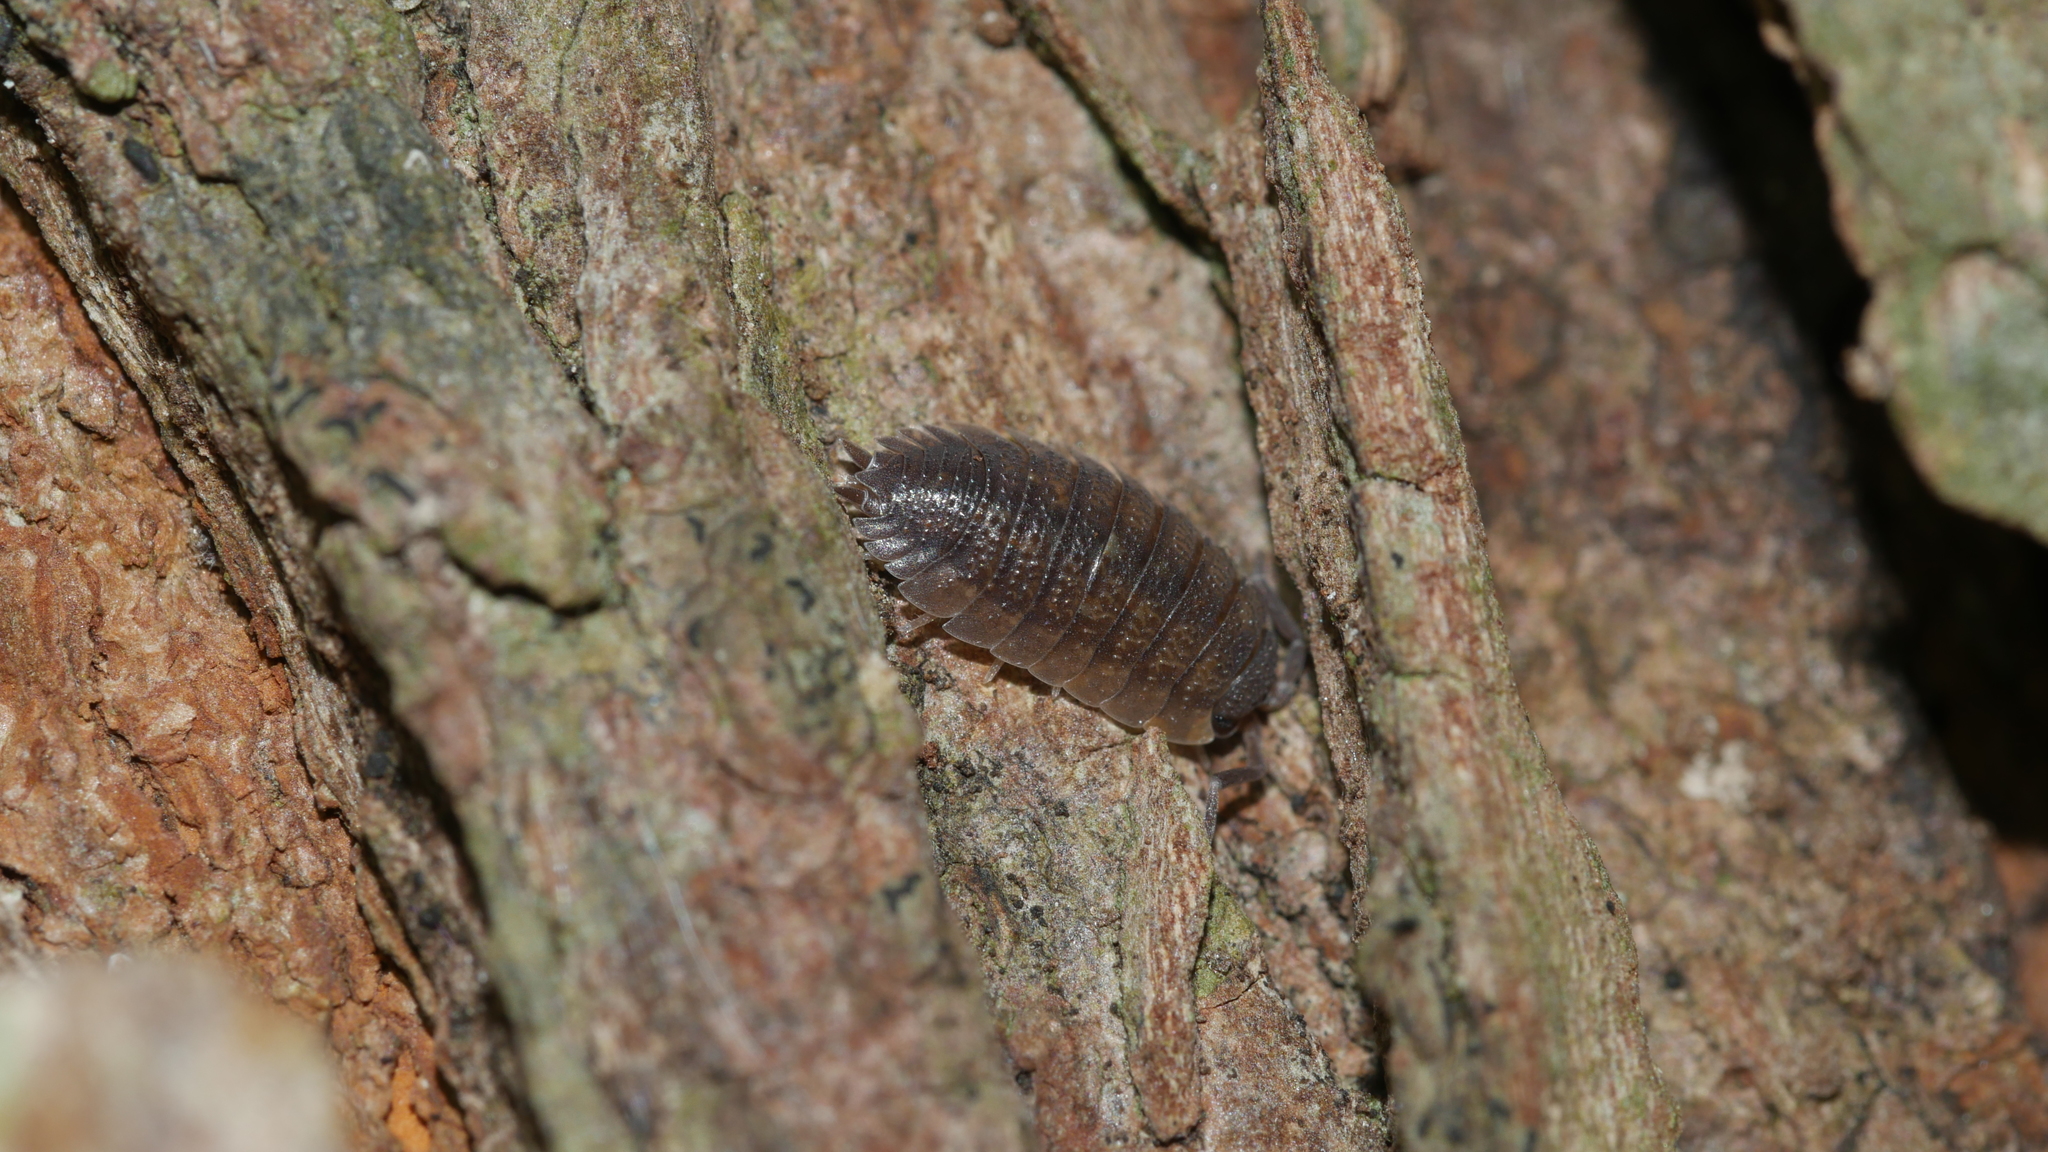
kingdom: Animalia
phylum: Arthropoda
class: Malacostraca
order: Isopoda
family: Porcellionidae
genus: Porcellio
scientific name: Porcellio scaber
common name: Common rough woodlouse
